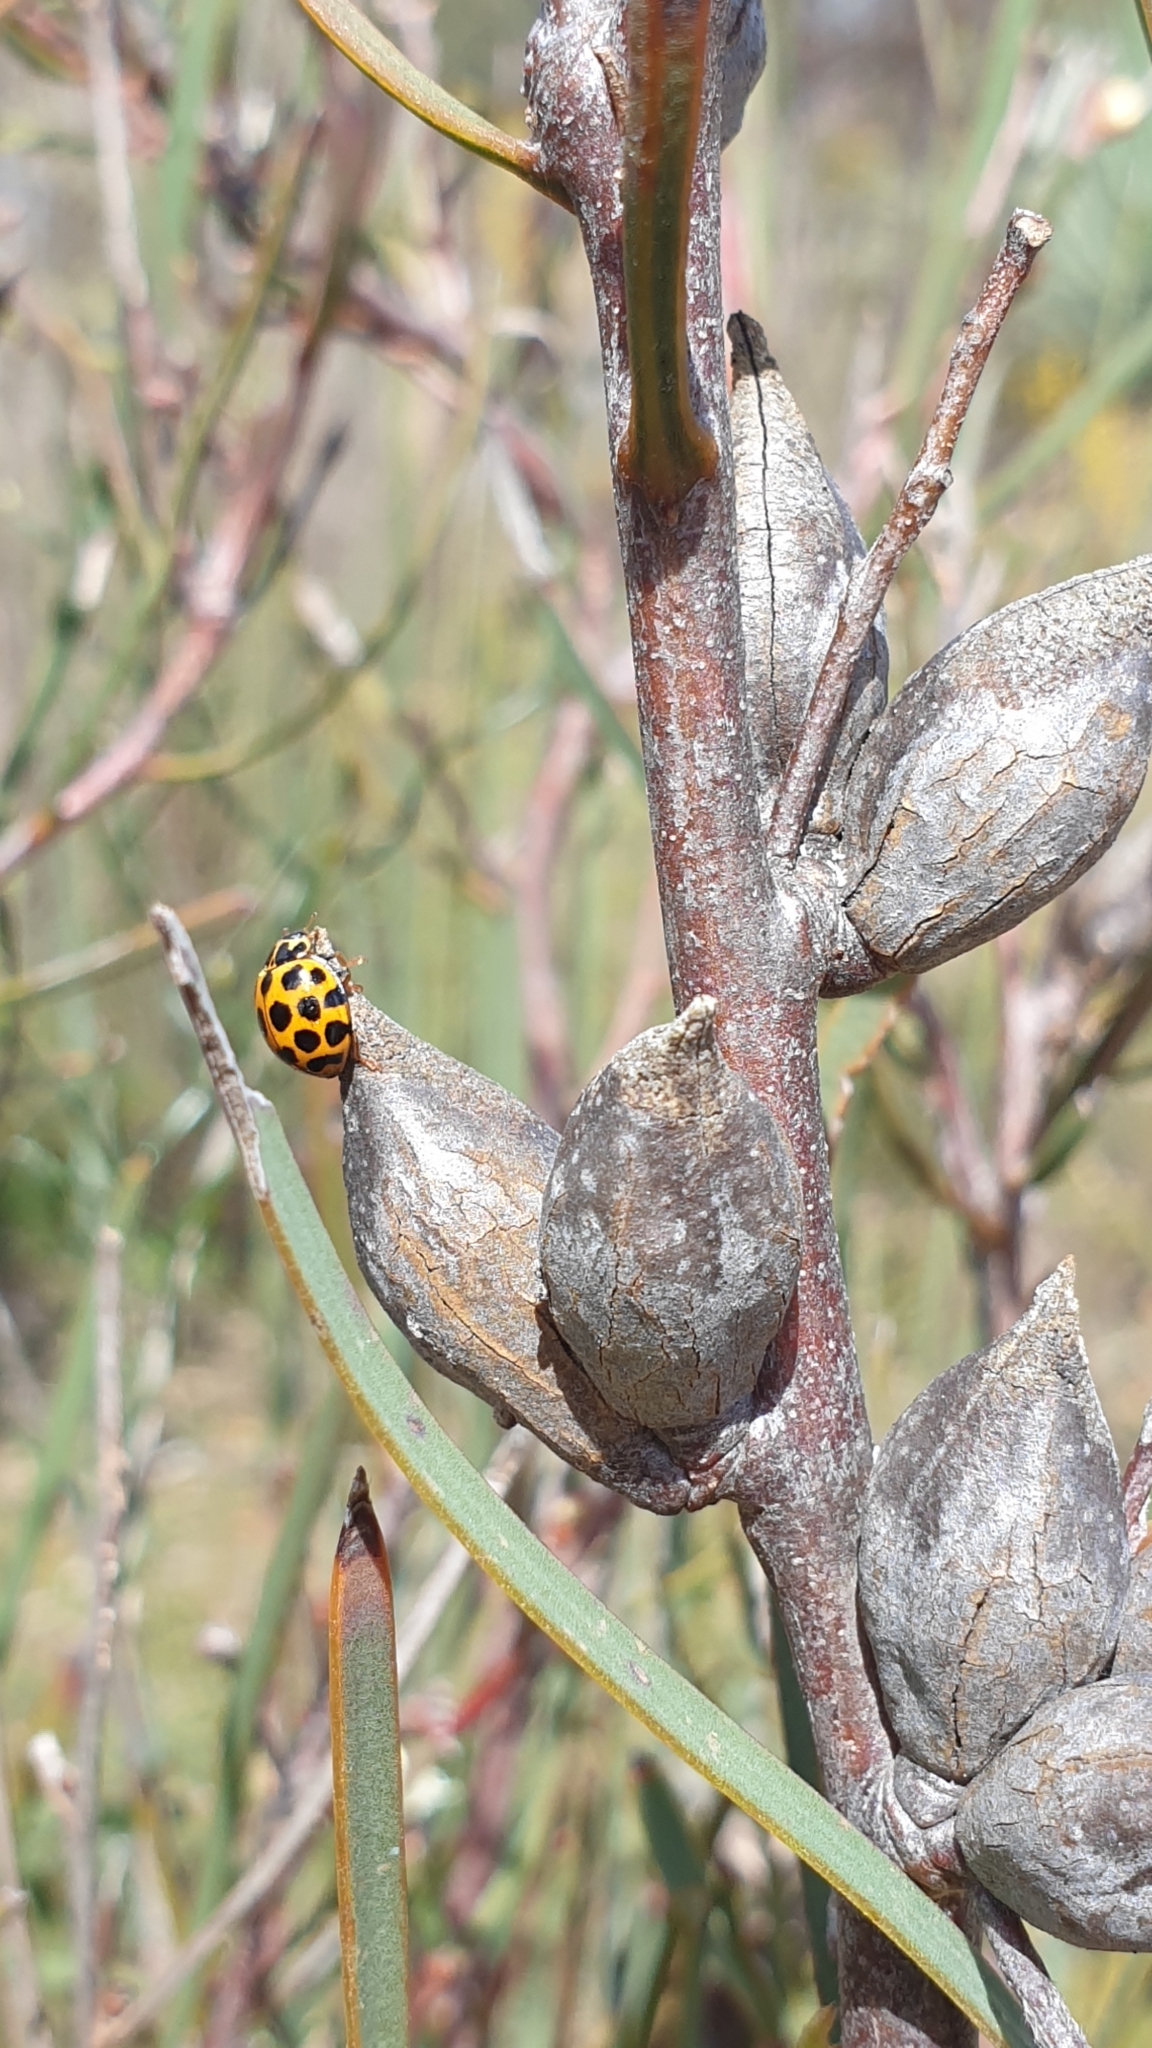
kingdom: Plantae
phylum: Tracheophyta
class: Magnoliopsida
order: Proteales
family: Proteaceae
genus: Hakea
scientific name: Hakea carinata
